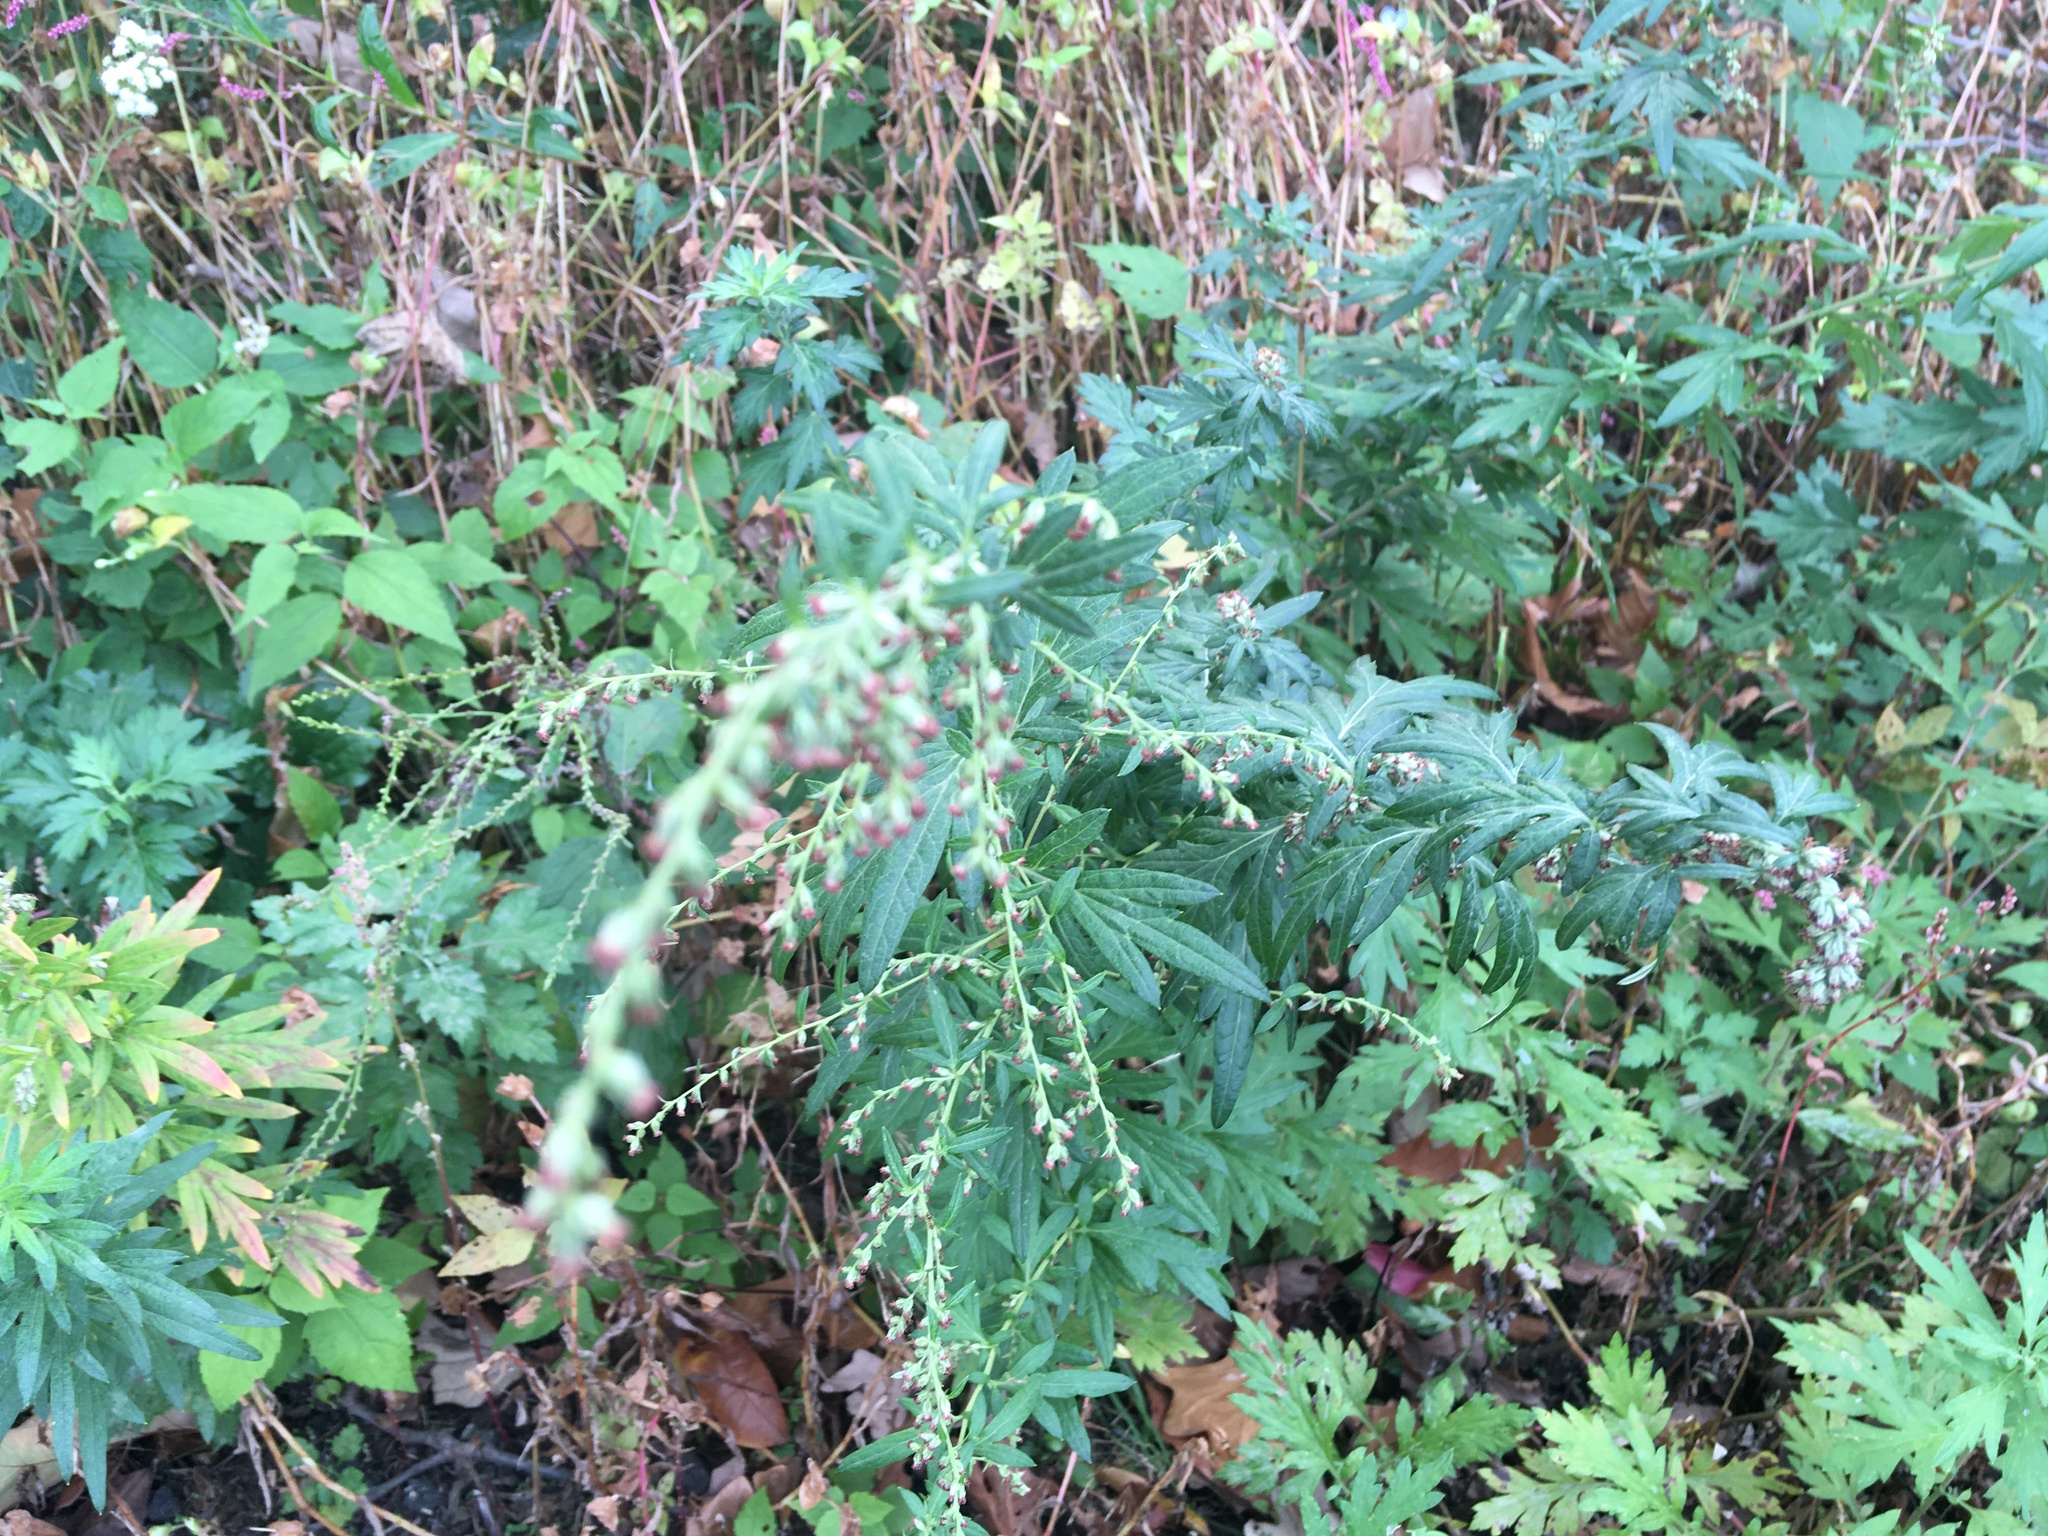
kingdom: Plantae
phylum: Tracheophyta
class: Magnoliopsida
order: Asterales
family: Asteraceae
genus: Artemisia
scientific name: Artemisia vulgaris
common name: Mugwort
